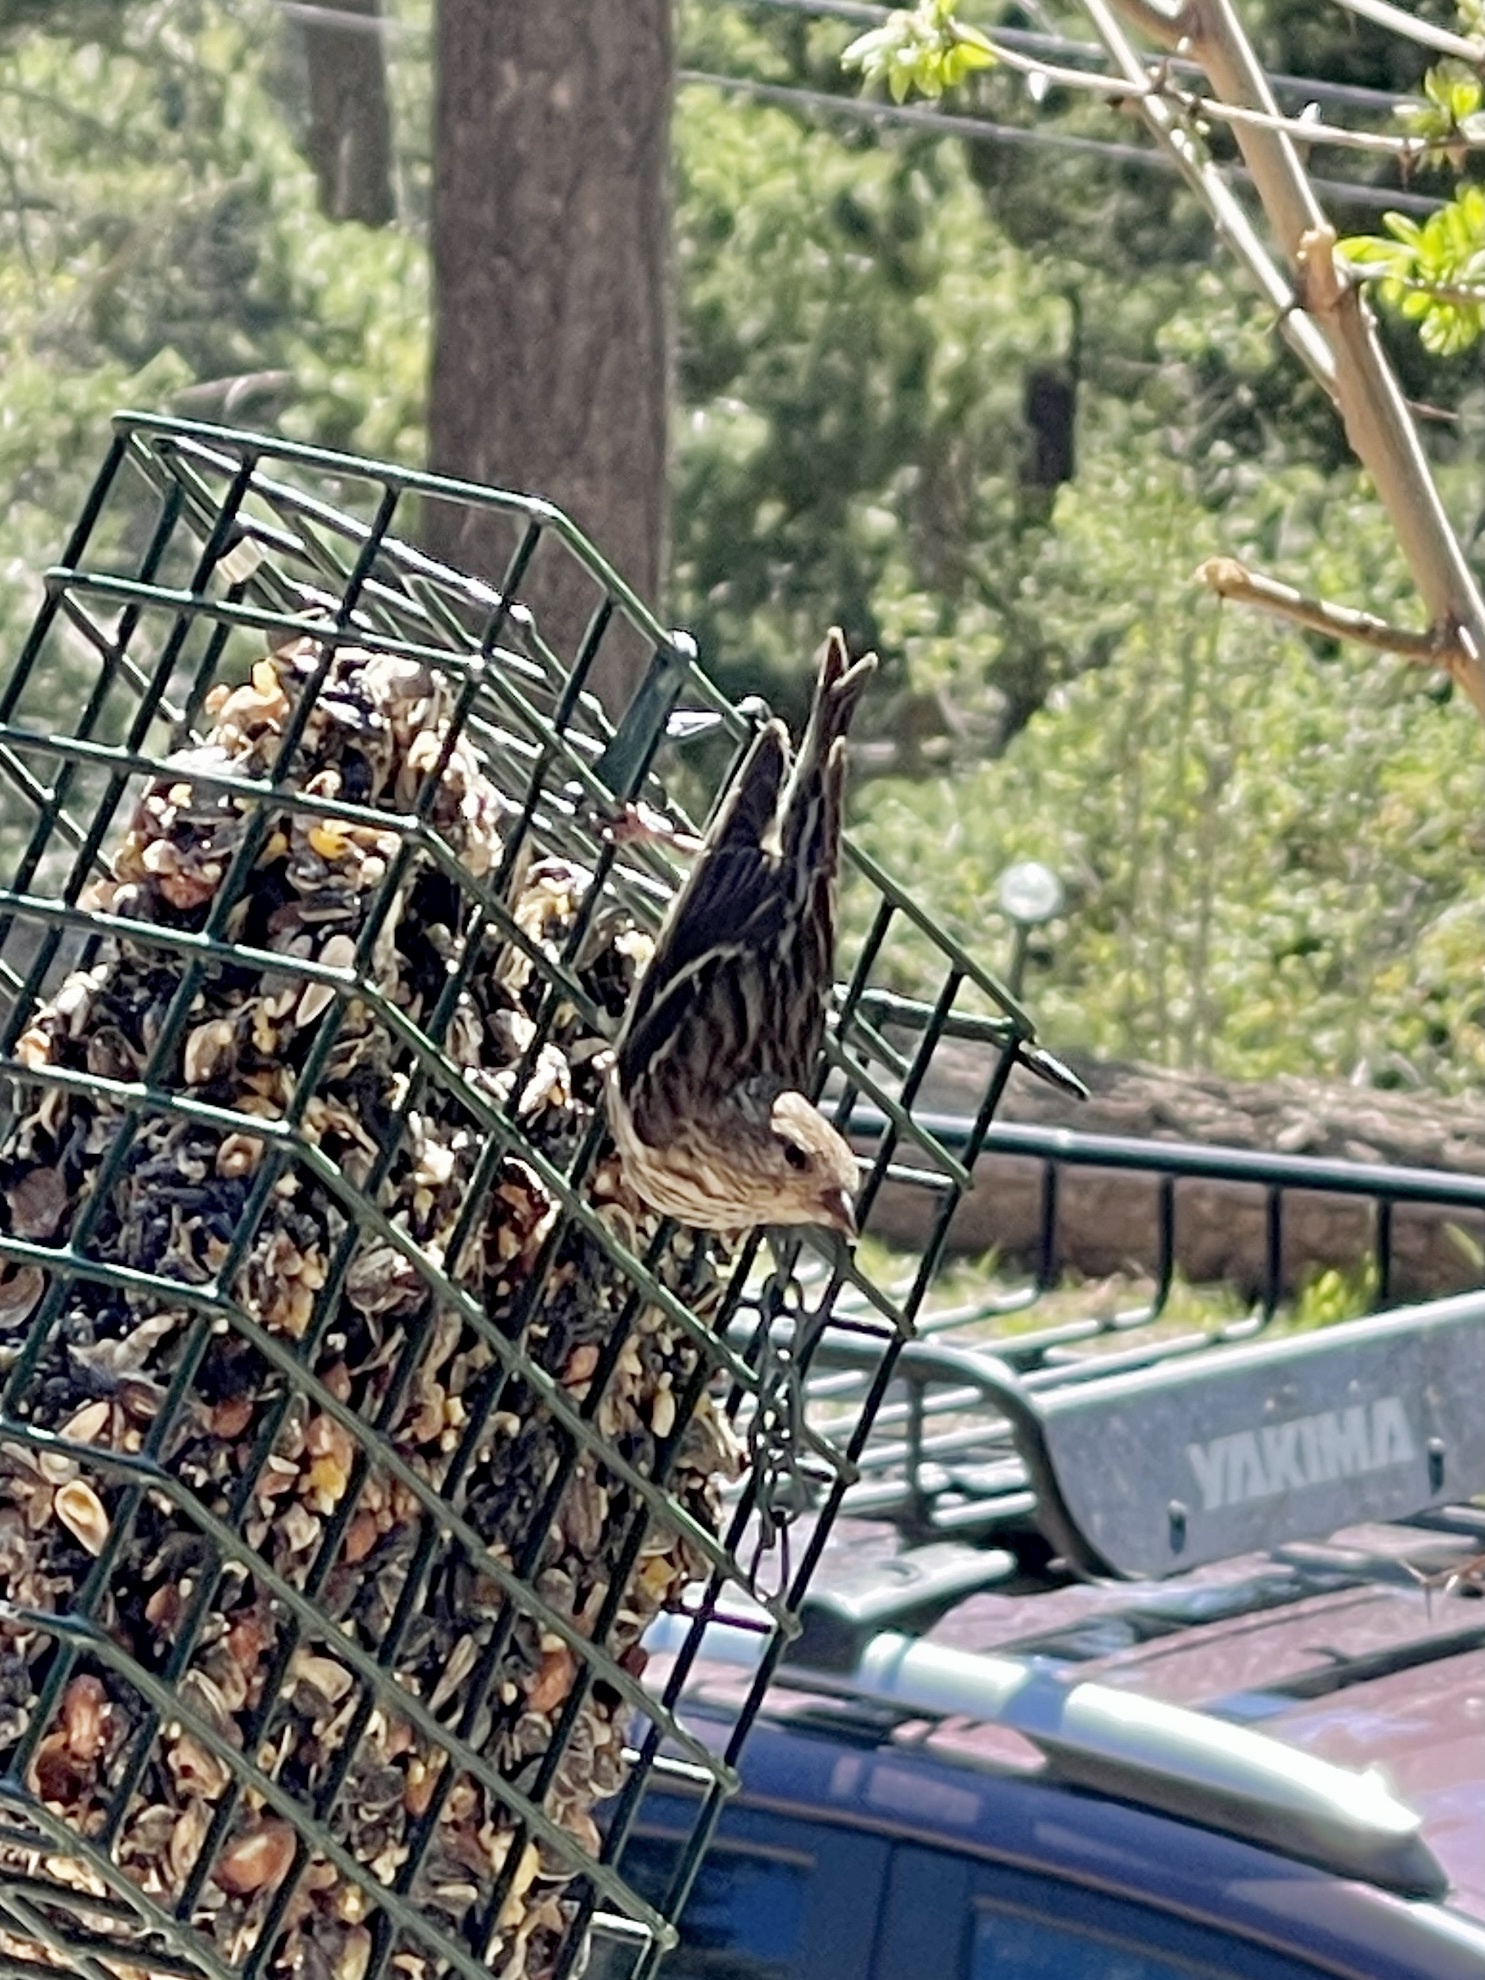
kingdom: Animalia
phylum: Chordata
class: Aves
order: Passeriformes
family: Fringillidae
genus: Spinus
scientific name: Spinus pinus
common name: Pine siskin
